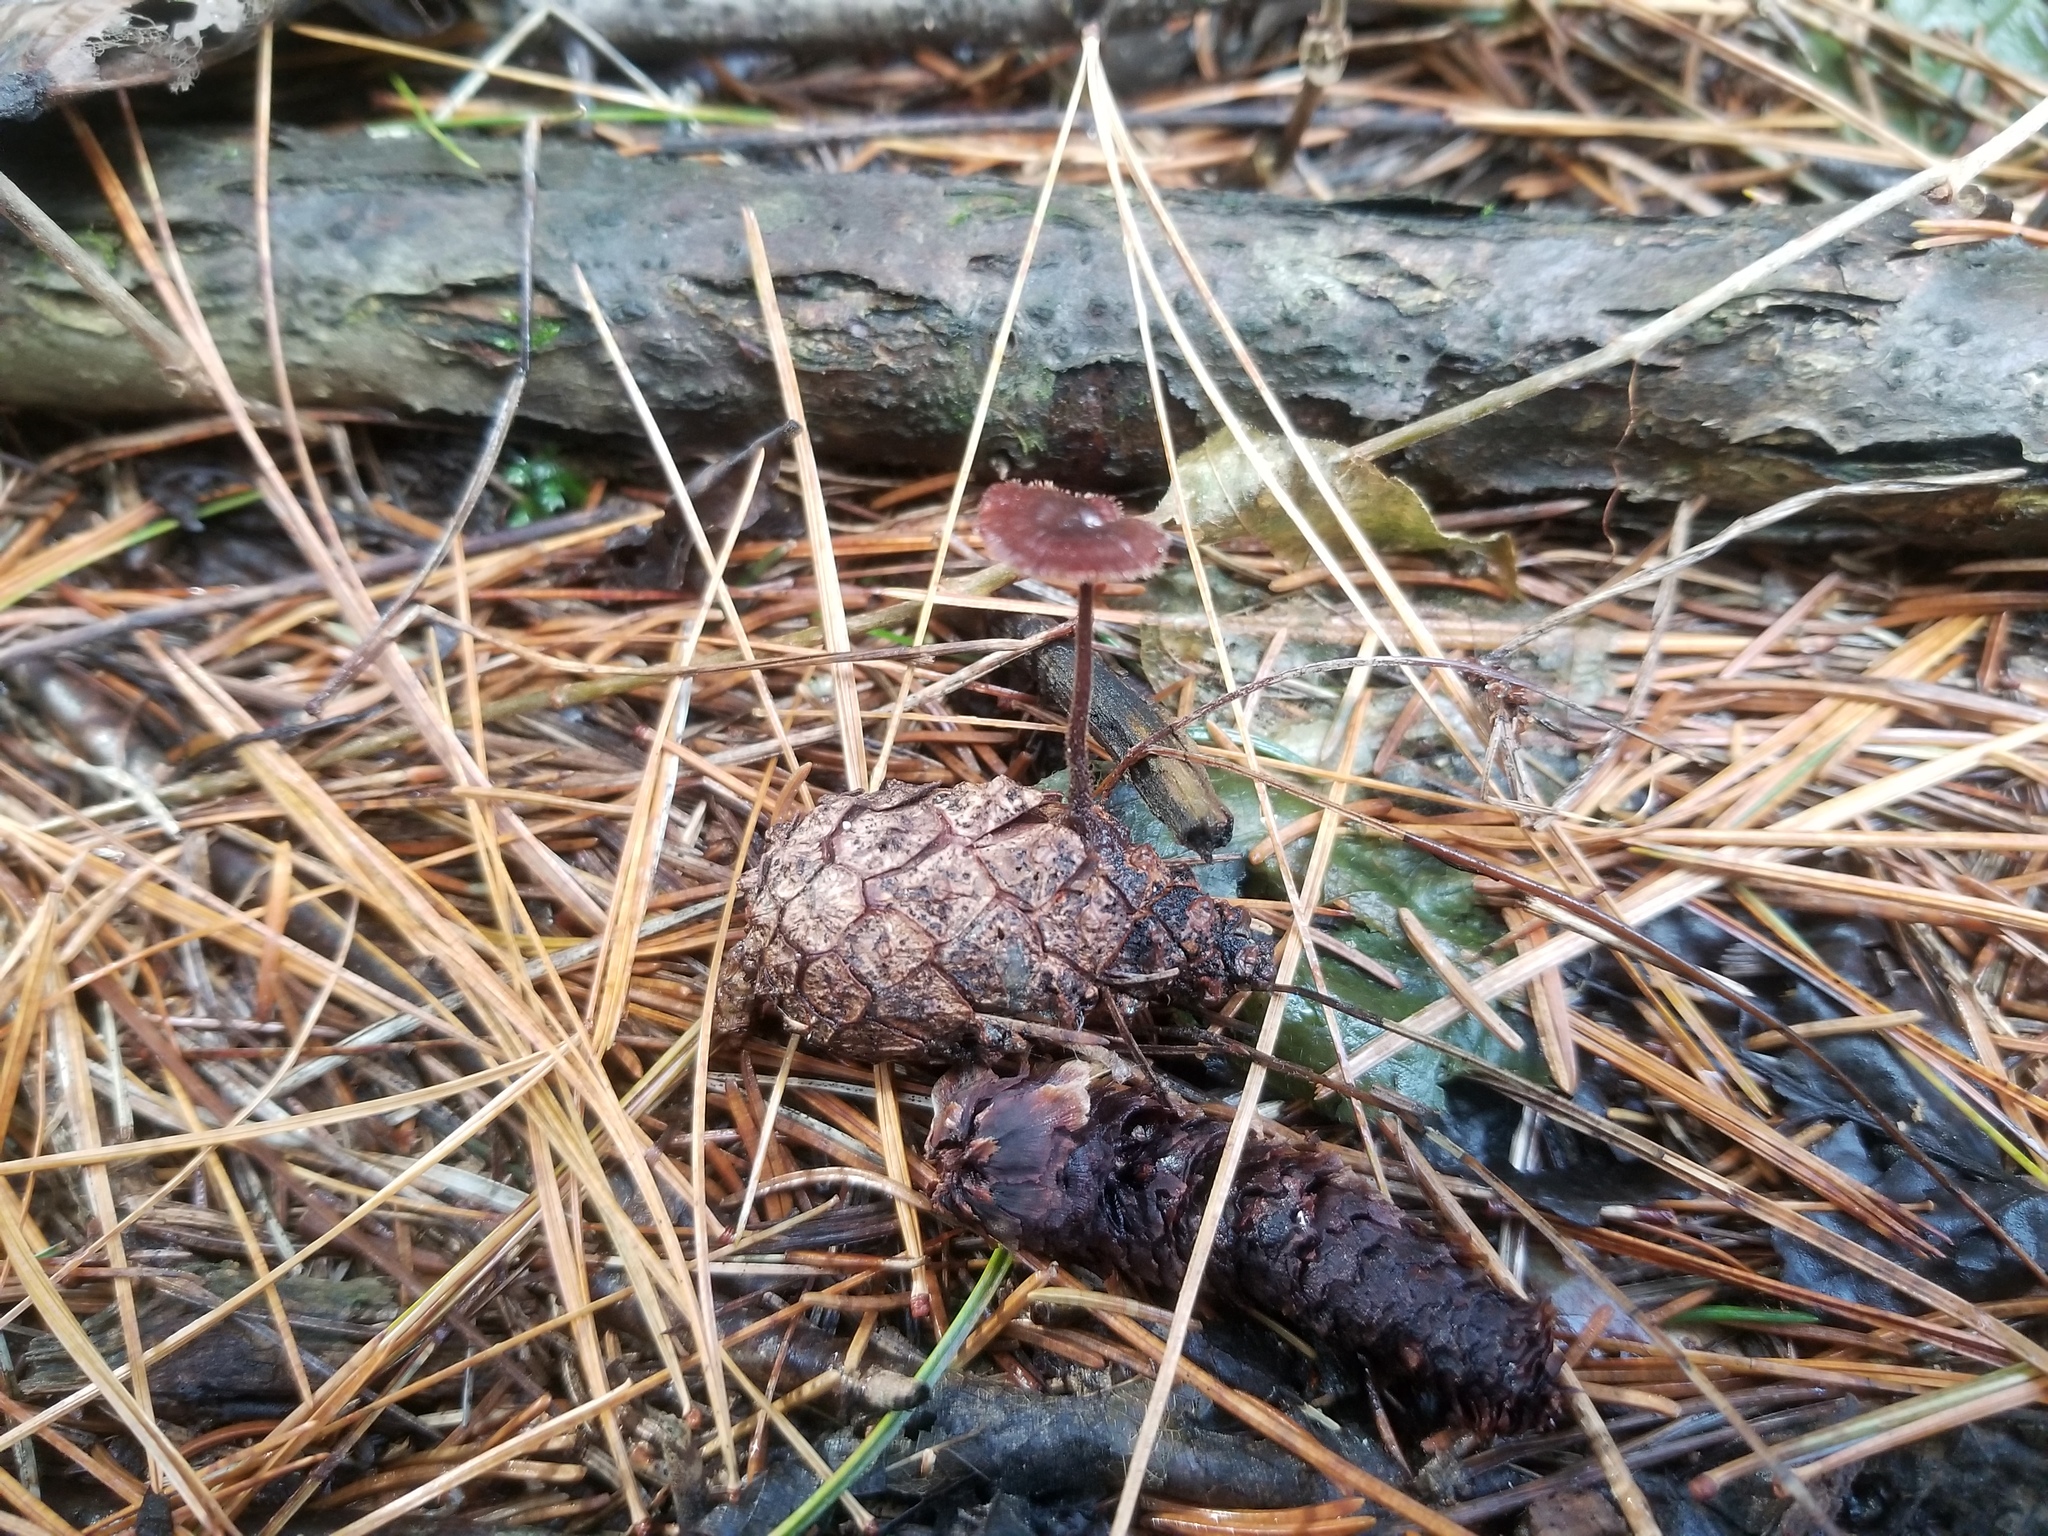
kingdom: Fungi
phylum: Basidiomycota
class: Agaricomycetes
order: Russulales
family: Auriscalpiaceae
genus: Auriscalpium
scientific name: Auriscalpium vulgare
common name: Earpick fungus
